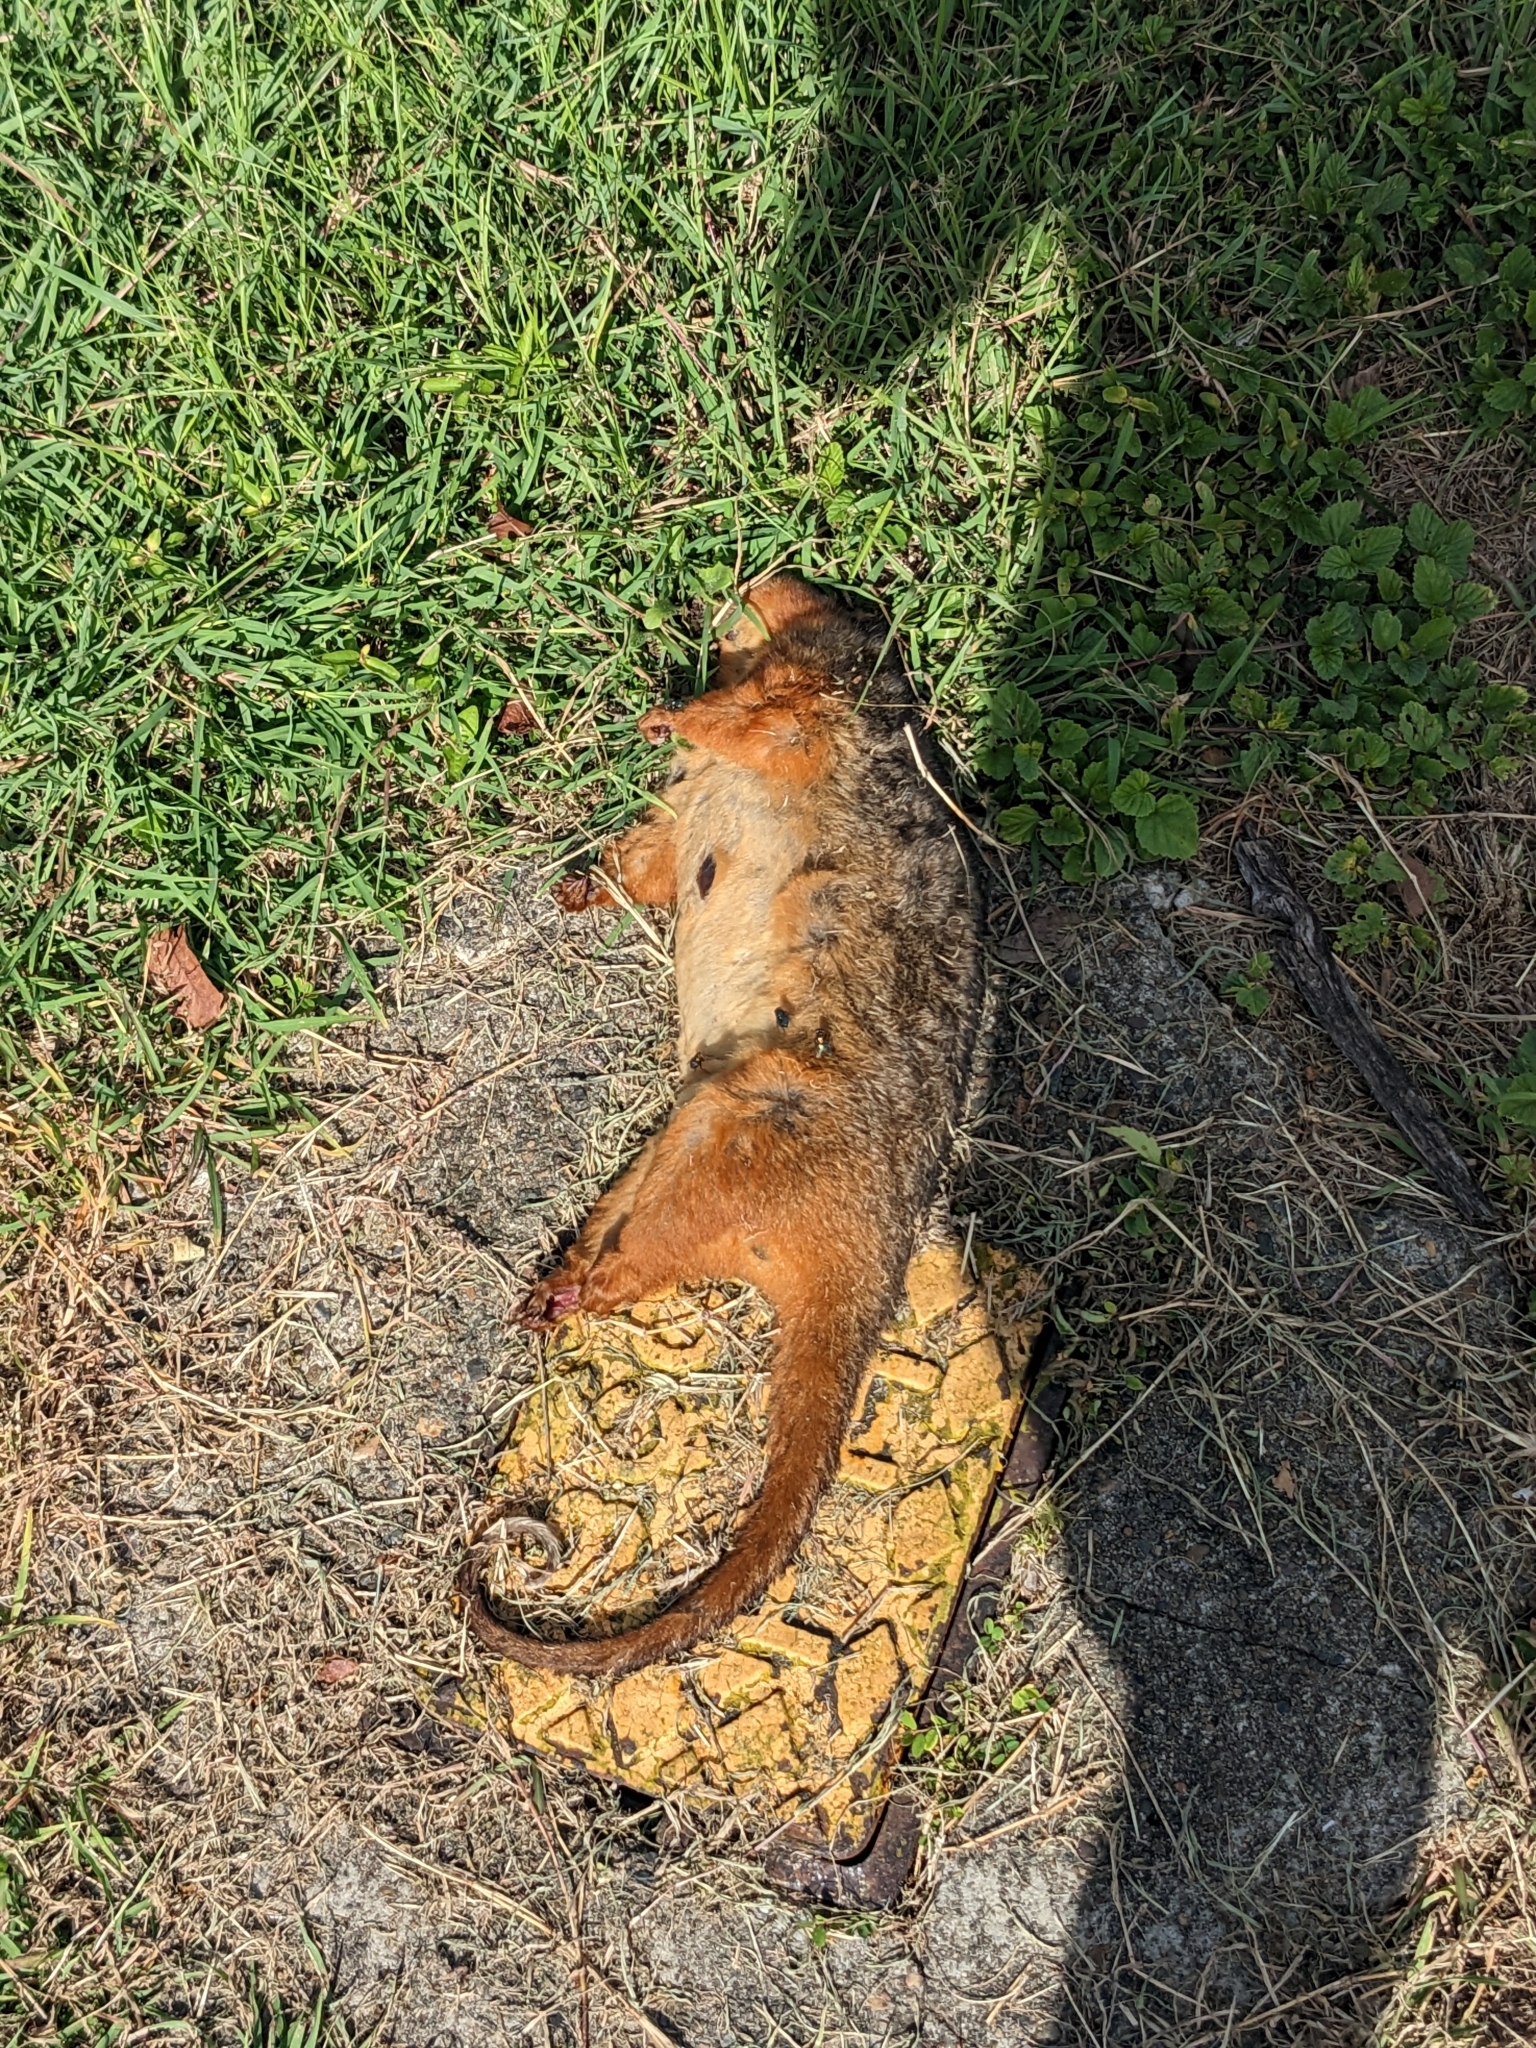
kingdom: Animalia
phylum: Chordata
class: Mammalia
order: Diprotodontia
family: Pseudocheiridae
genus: Pseudocheirus
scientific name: Pseudocheirus peregrinus
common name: Common ringtail possum
